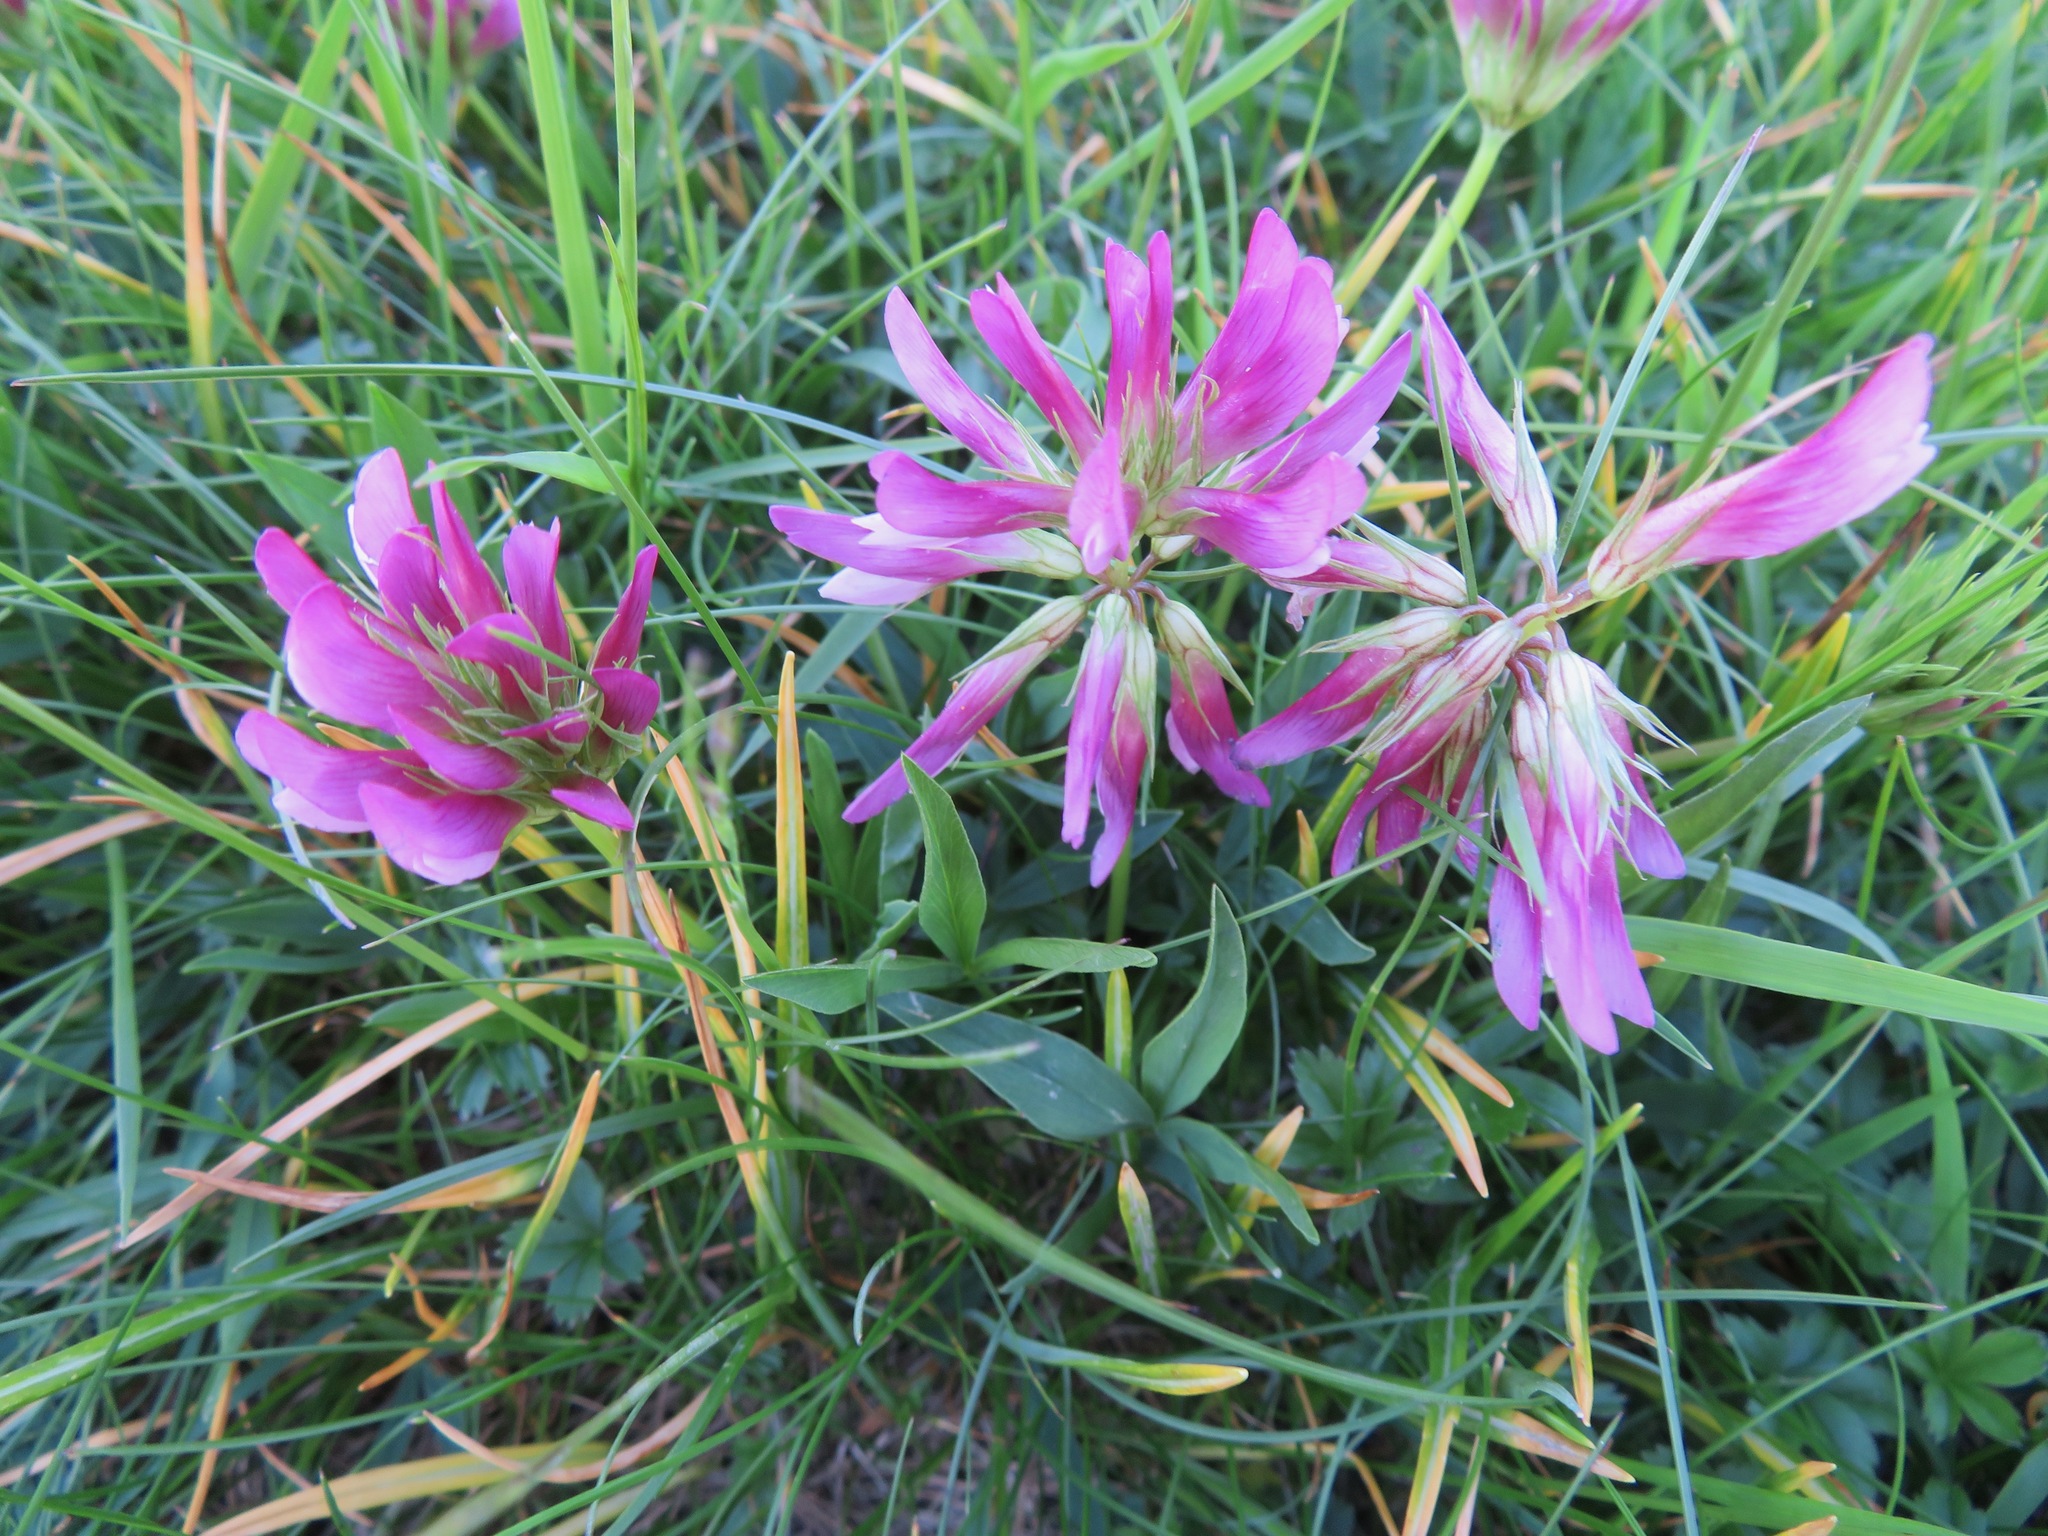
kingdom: Plantae
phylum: Tracheophyta
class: Magnoliopsida
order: Fabales
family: Fabaceae
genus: Trifolium
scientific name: Trifolium alpinum
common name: Alpine clover
